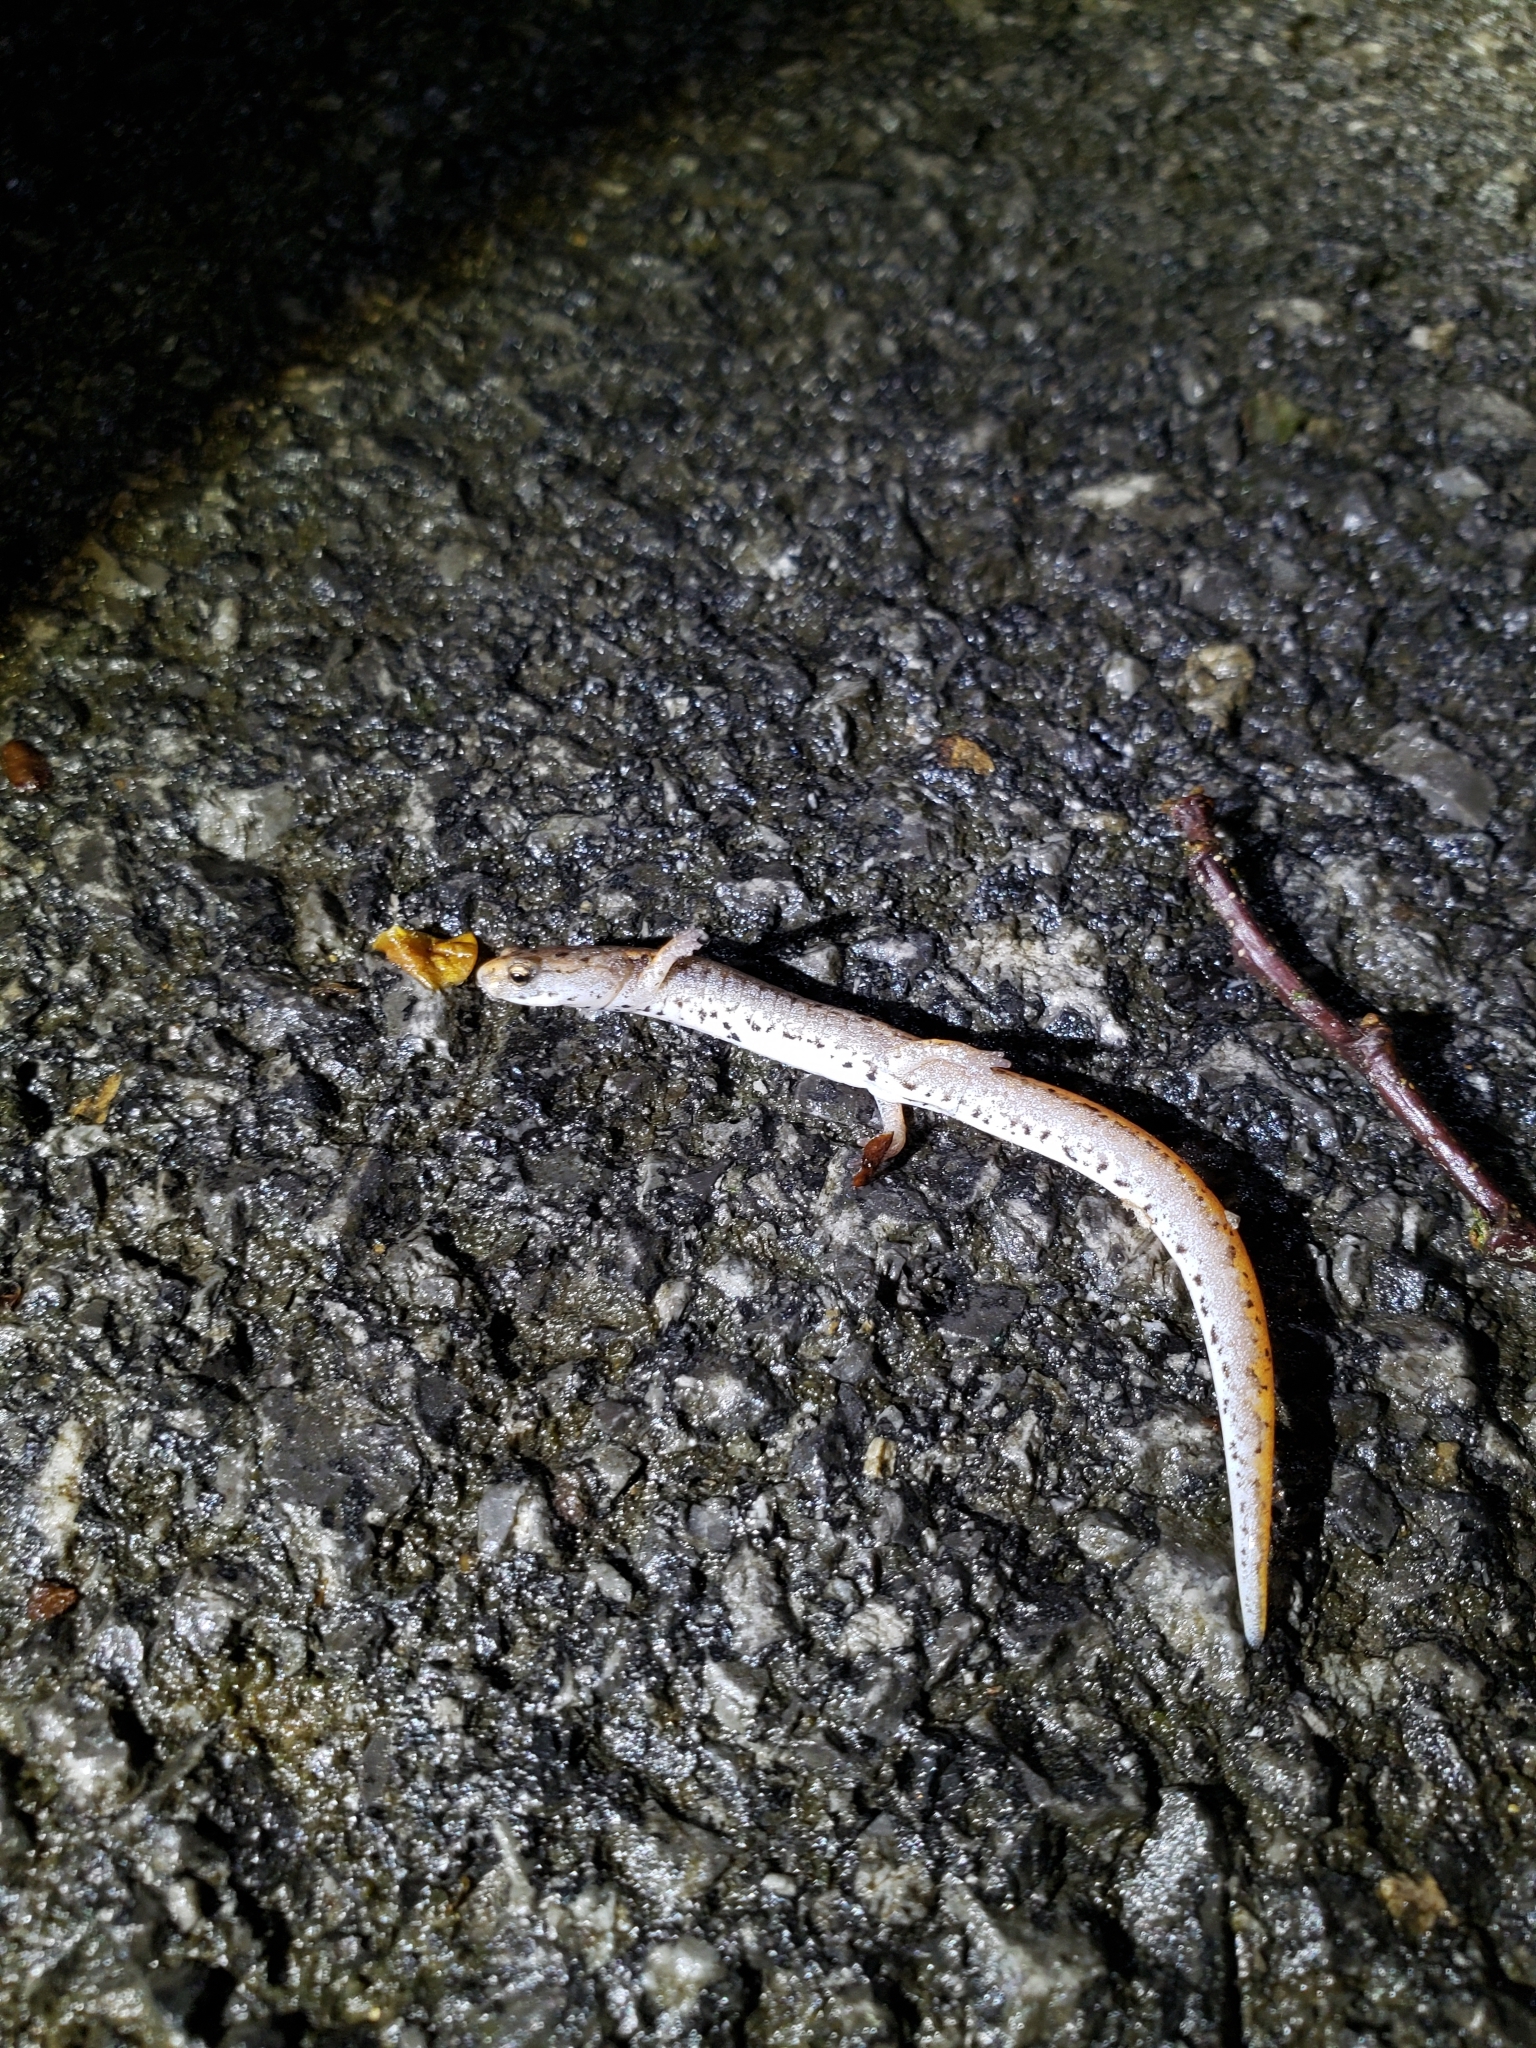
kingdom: Animalia
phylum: Chordata
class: Amphibia
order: Caudata
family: Plethodontidae
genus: Hemidactylium
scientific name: Hemidactylium scutatum
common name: Four-toed salamander
